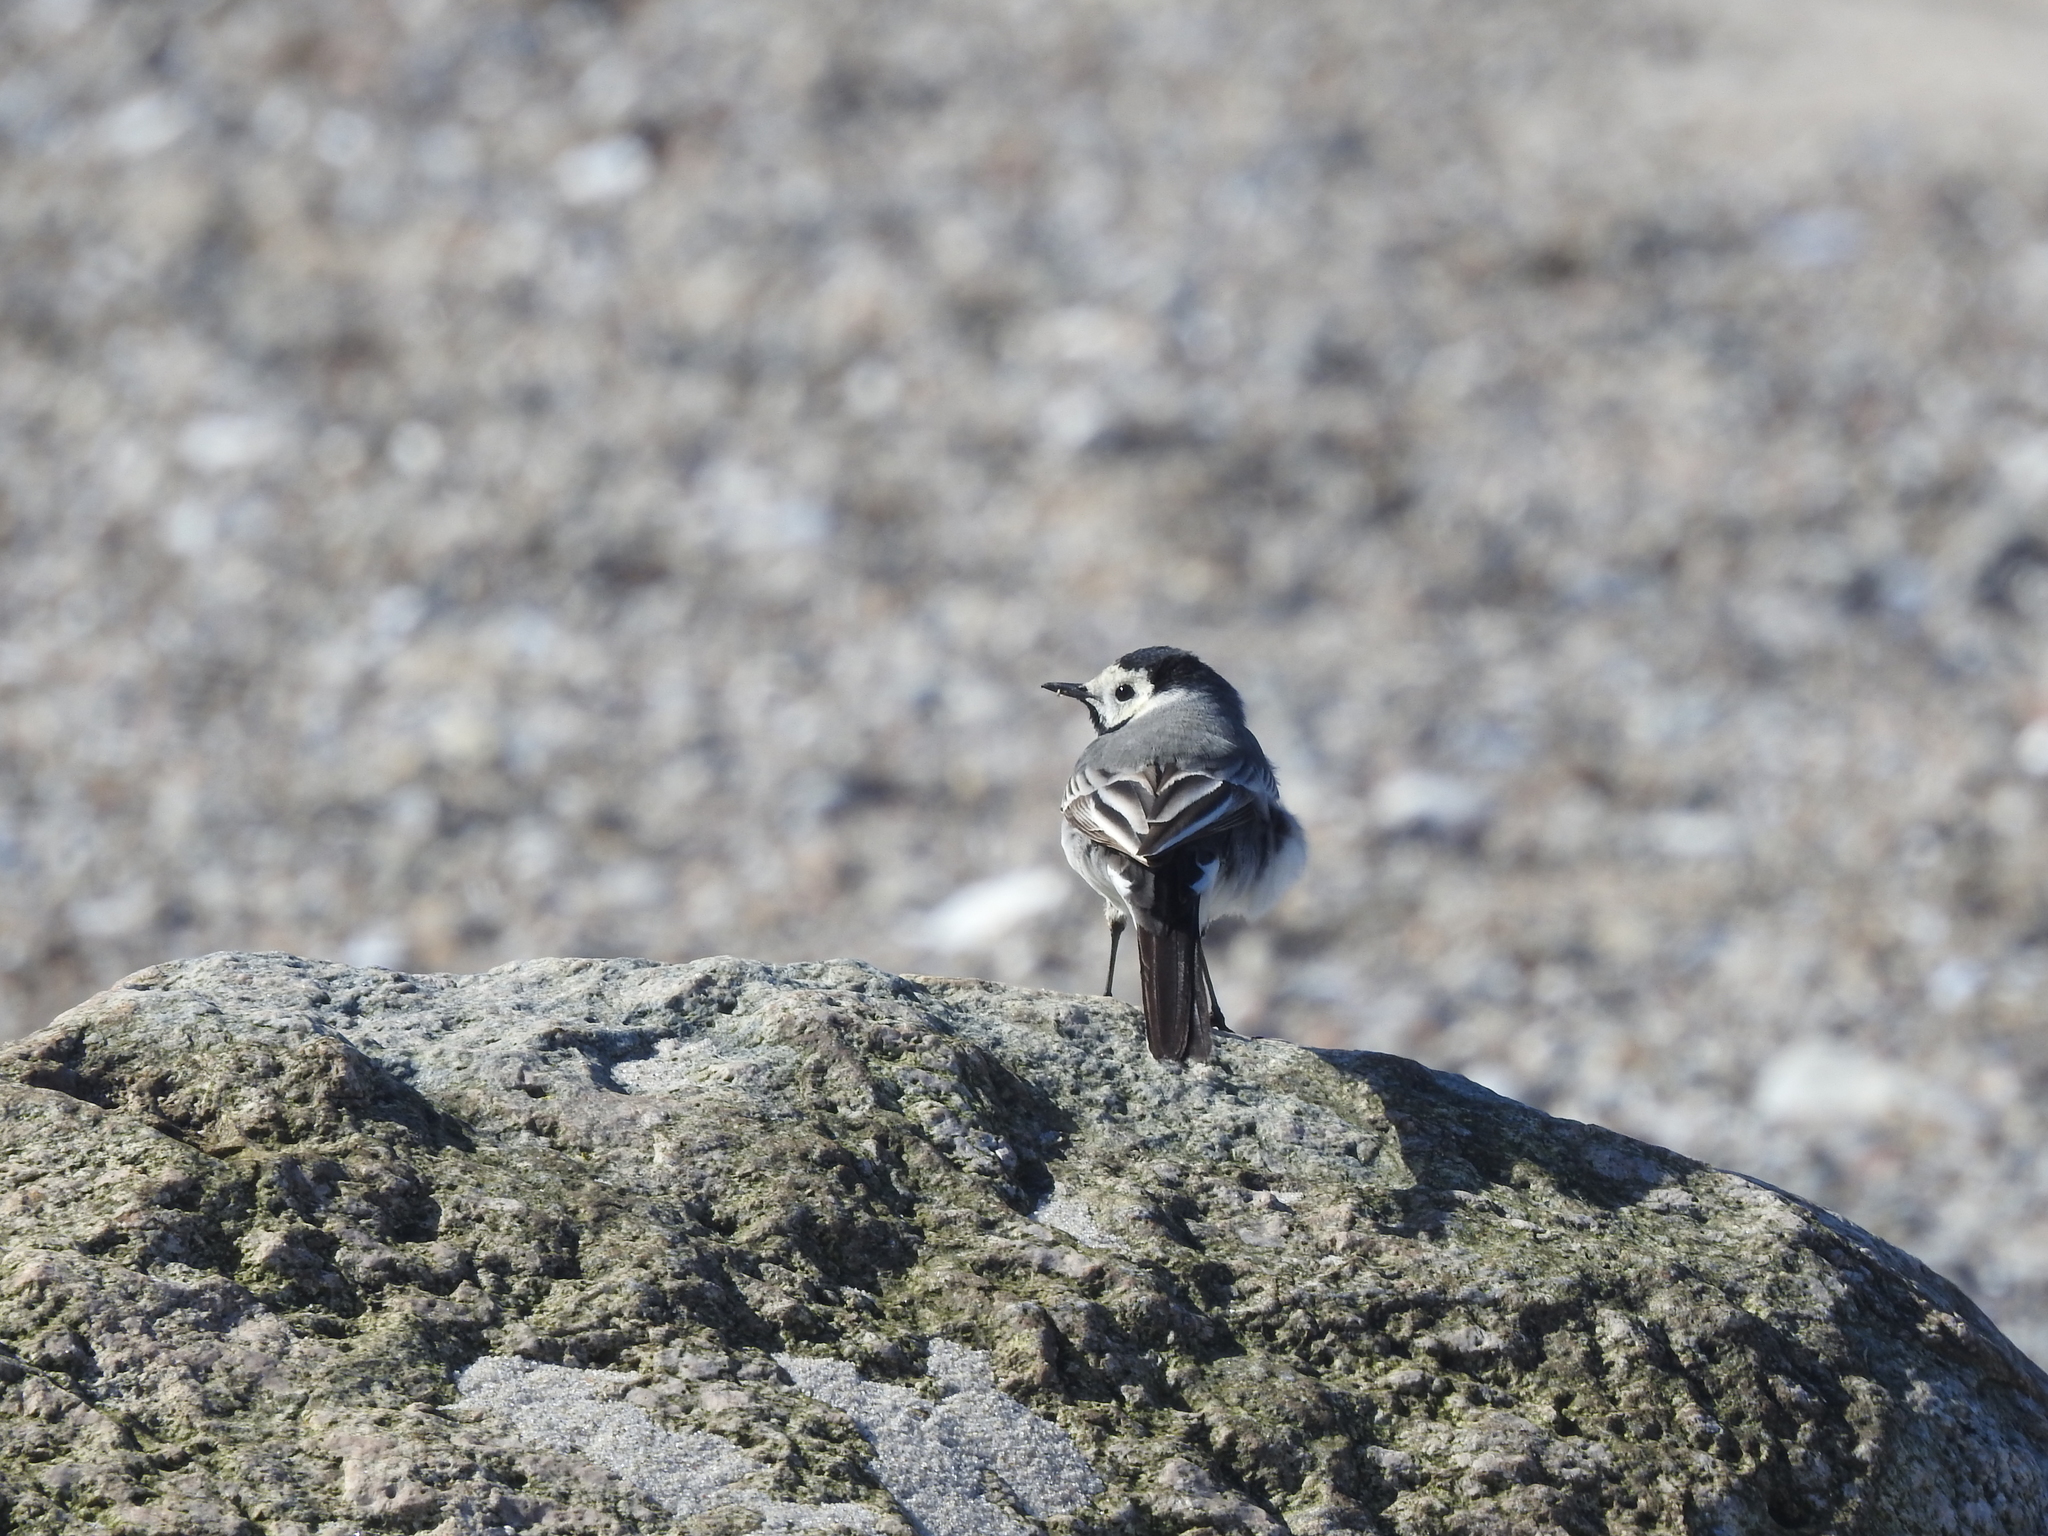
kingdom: Animalia
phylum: Chordata
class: Aves
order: Passeriformes
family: Motacillidae
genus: Motacilla
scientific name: Motacilla alba
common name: White wagtail
